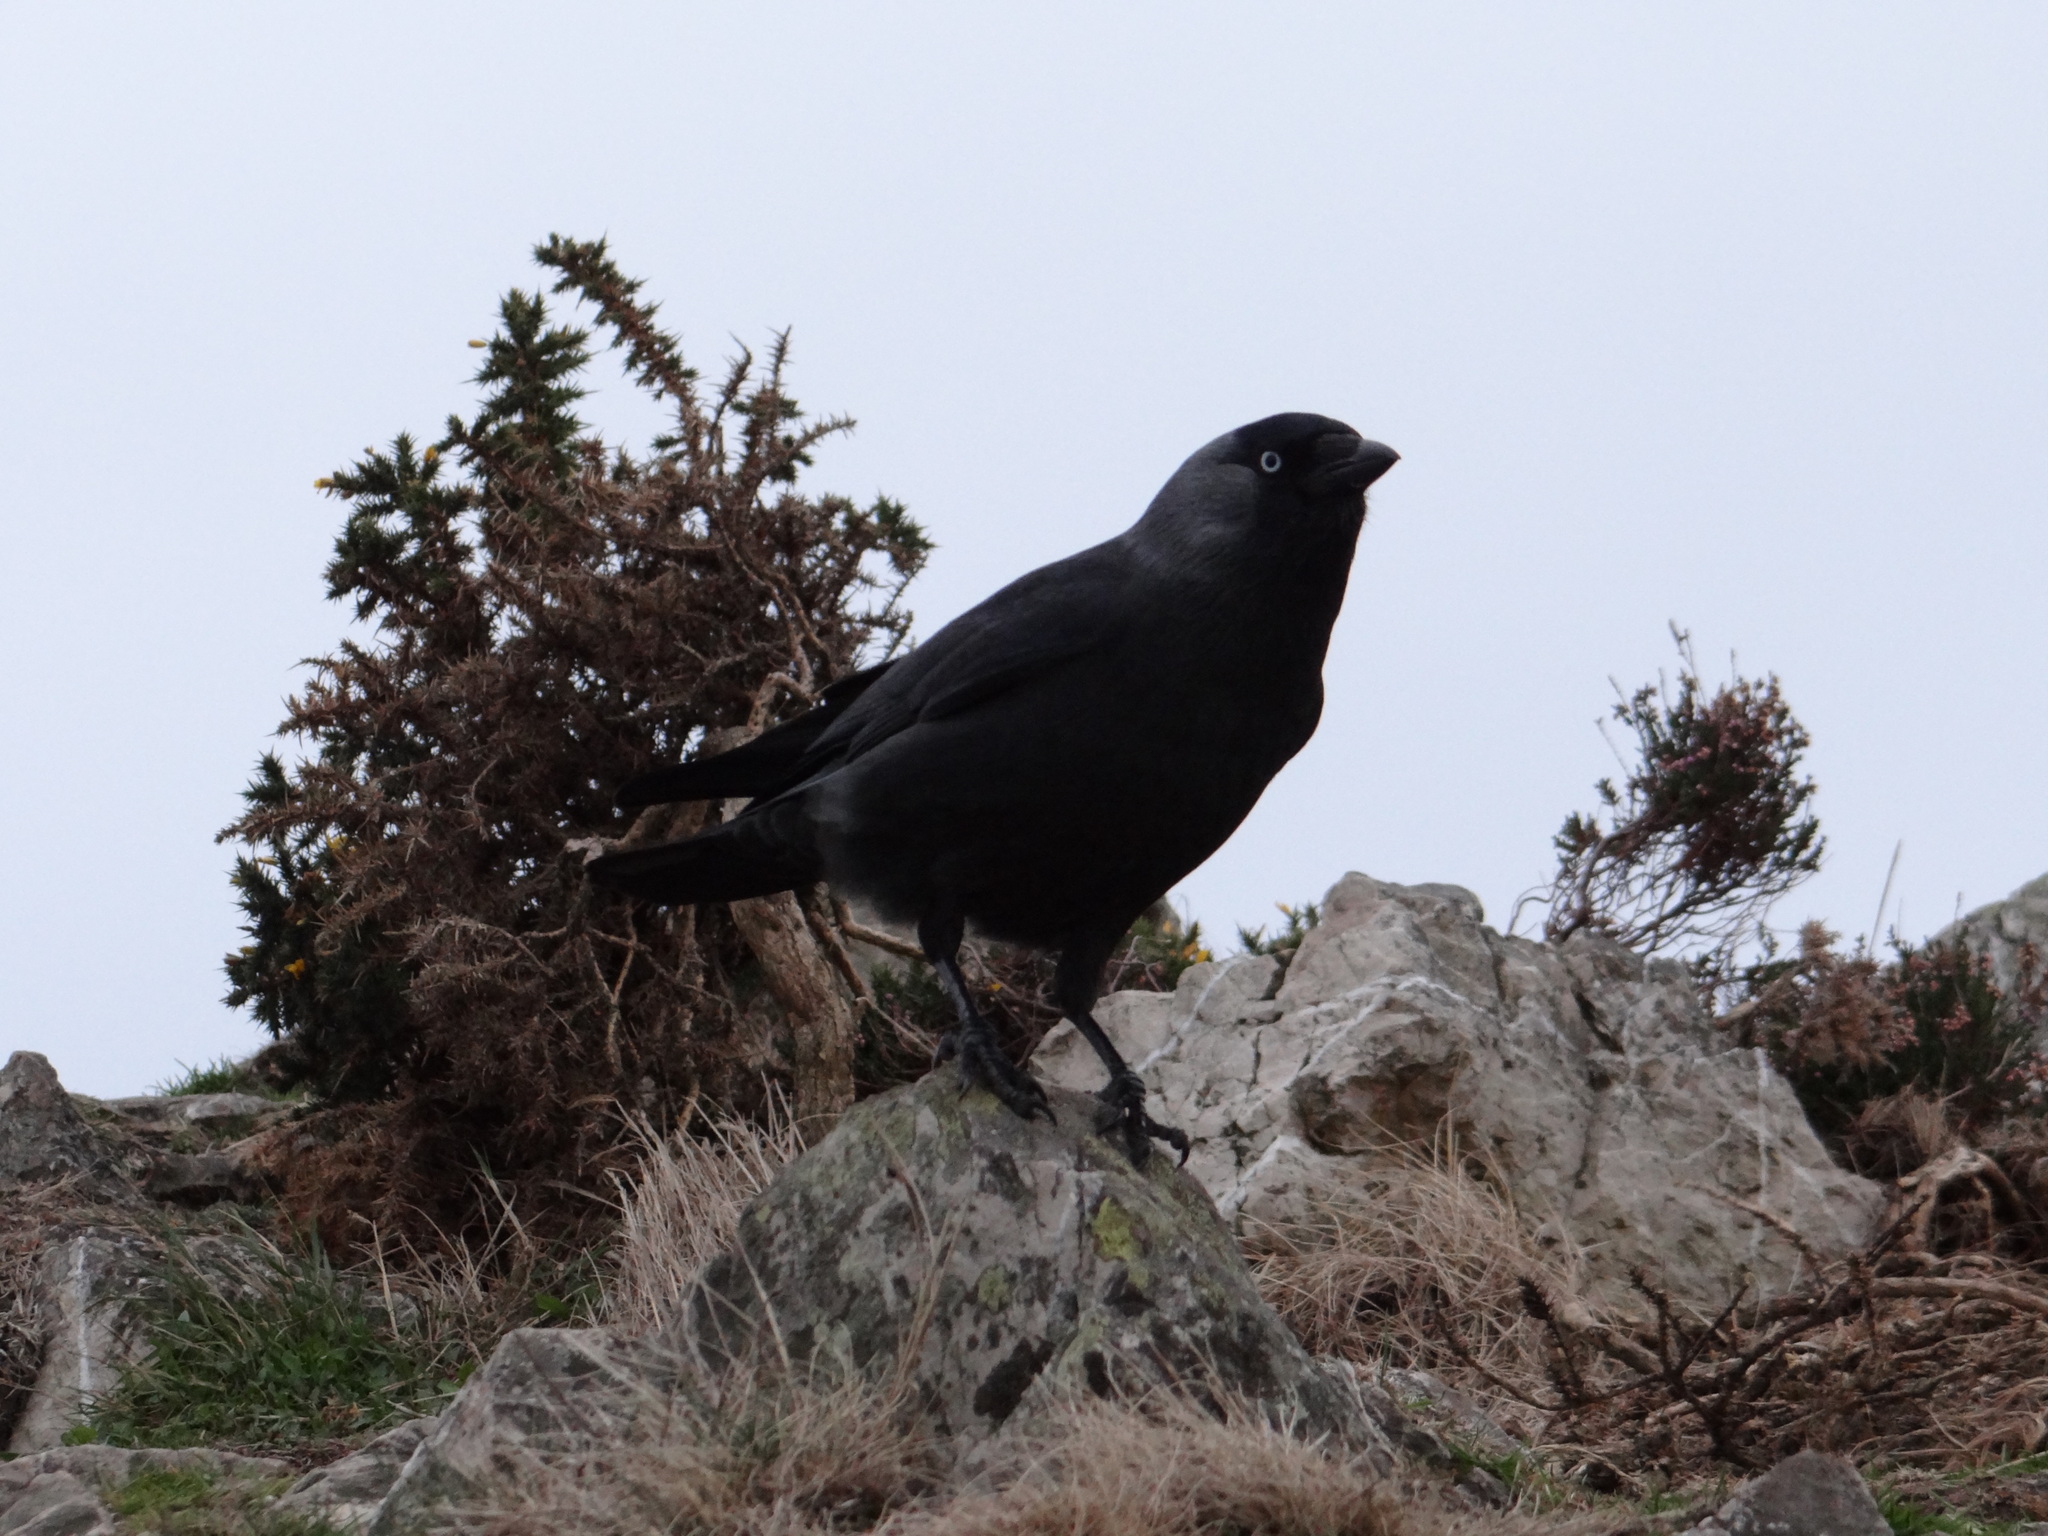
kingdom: Animalia
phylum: Chordata
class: Aves
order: Passeriformes
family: Corvidae
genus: Coloeus
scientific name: Coloeus monedula
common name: Western jackdaw
